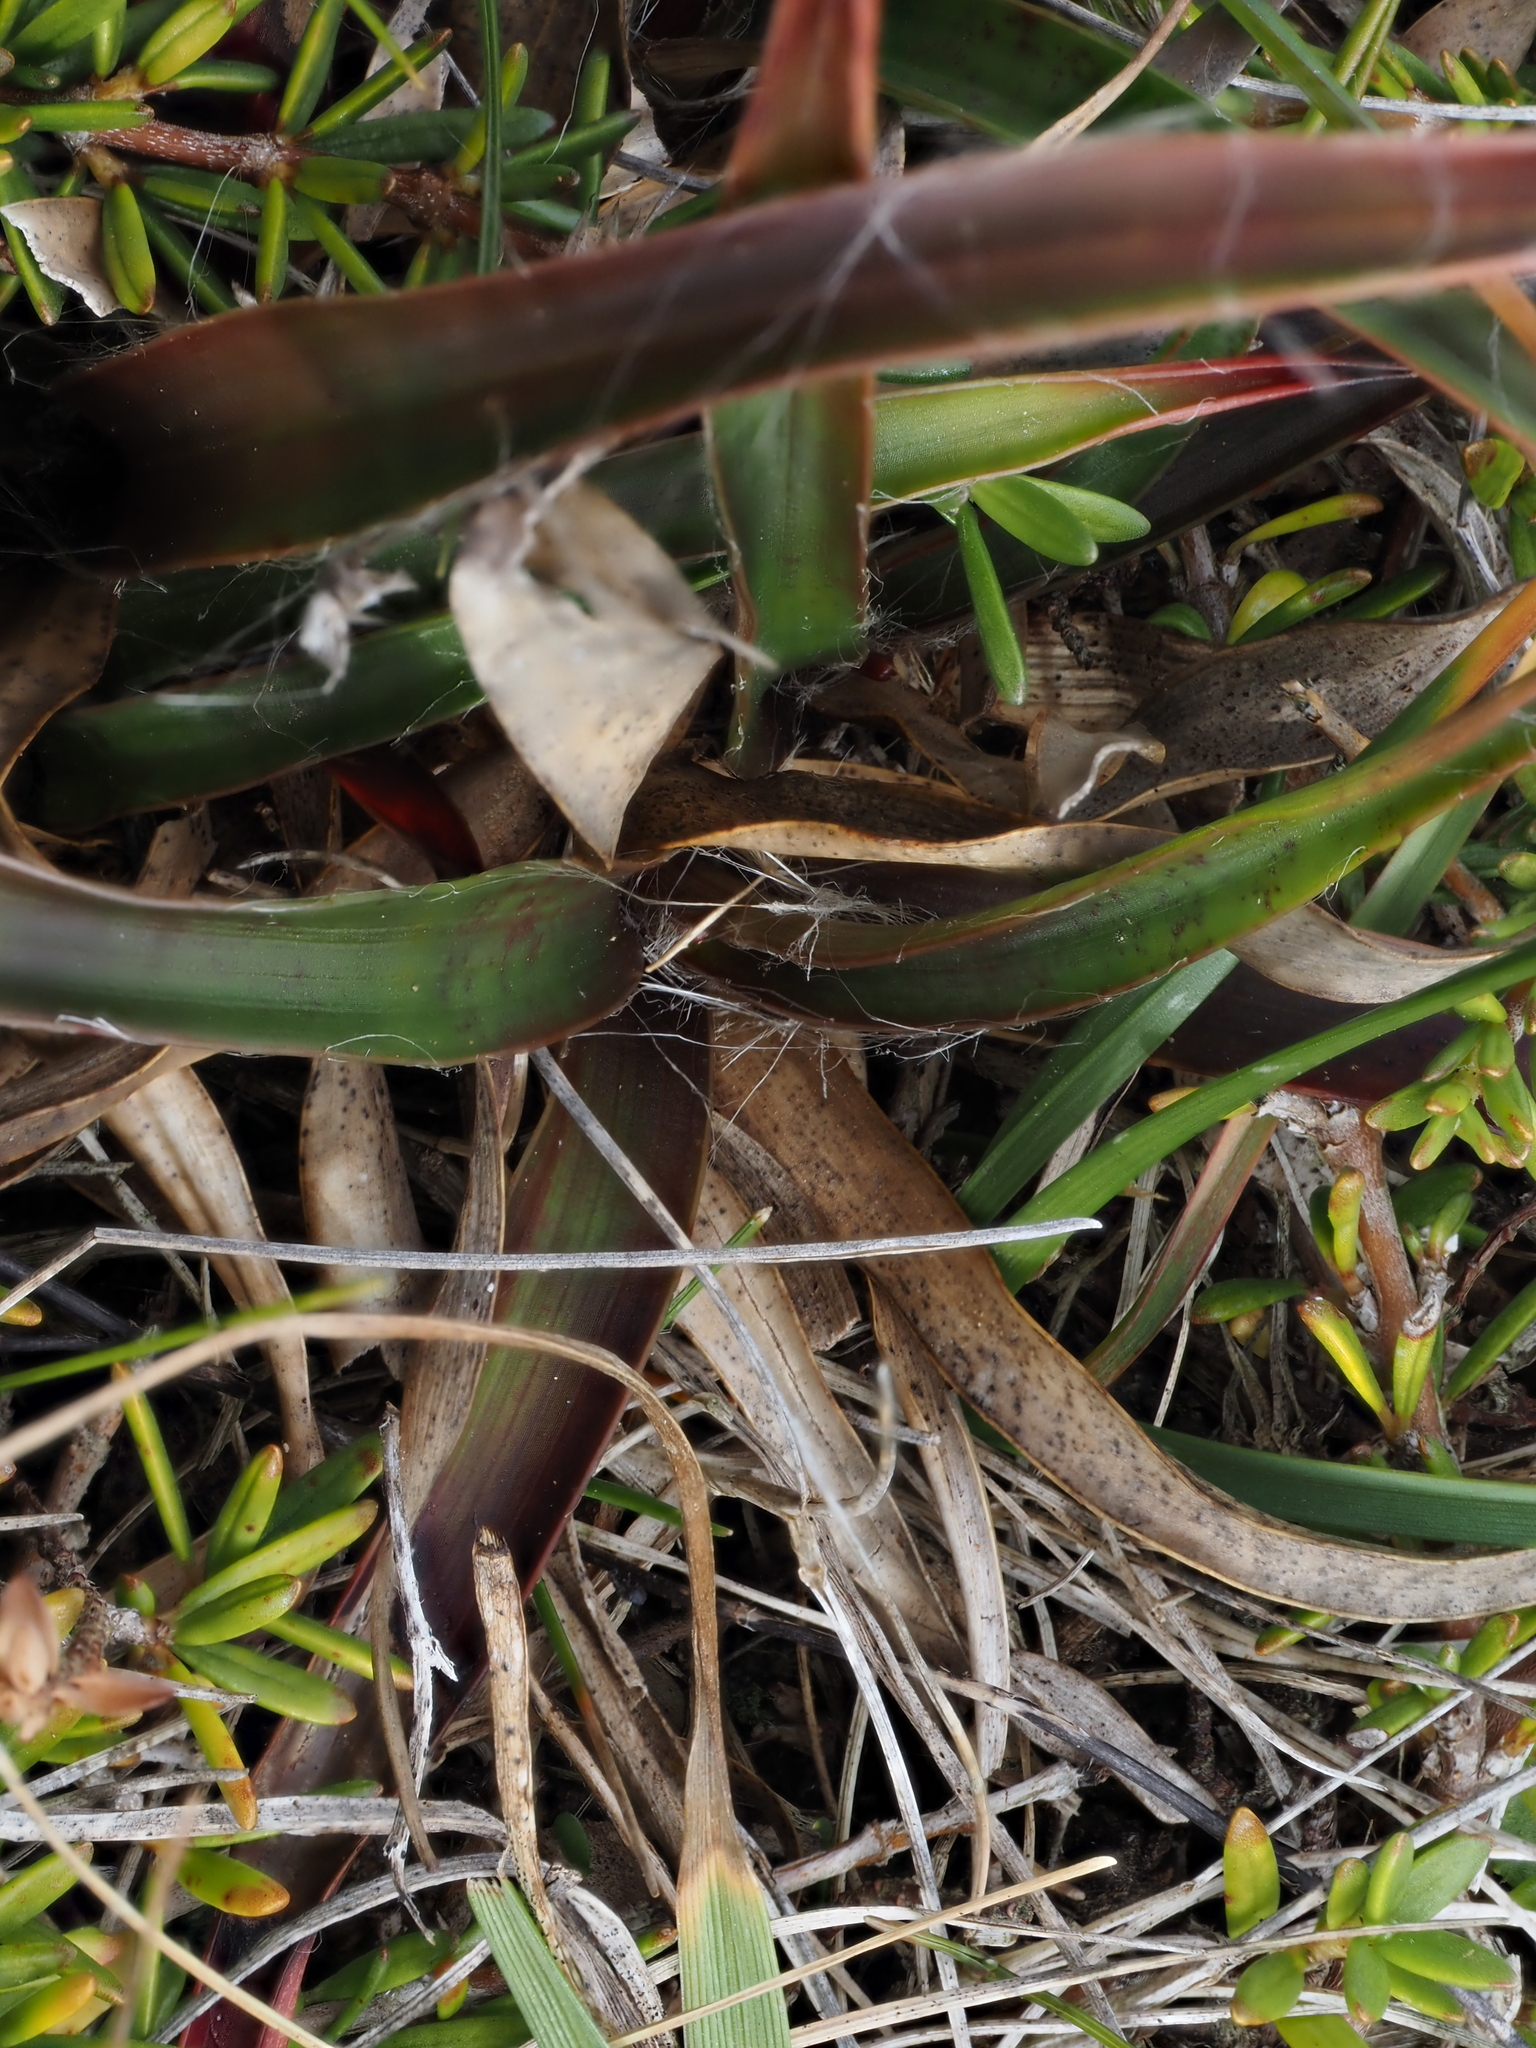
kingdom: Plantae
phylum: Tracheophyta
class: Liliopsida
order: Poales
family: Juncaceae
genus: Luzula
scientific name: Luzula banksiana
